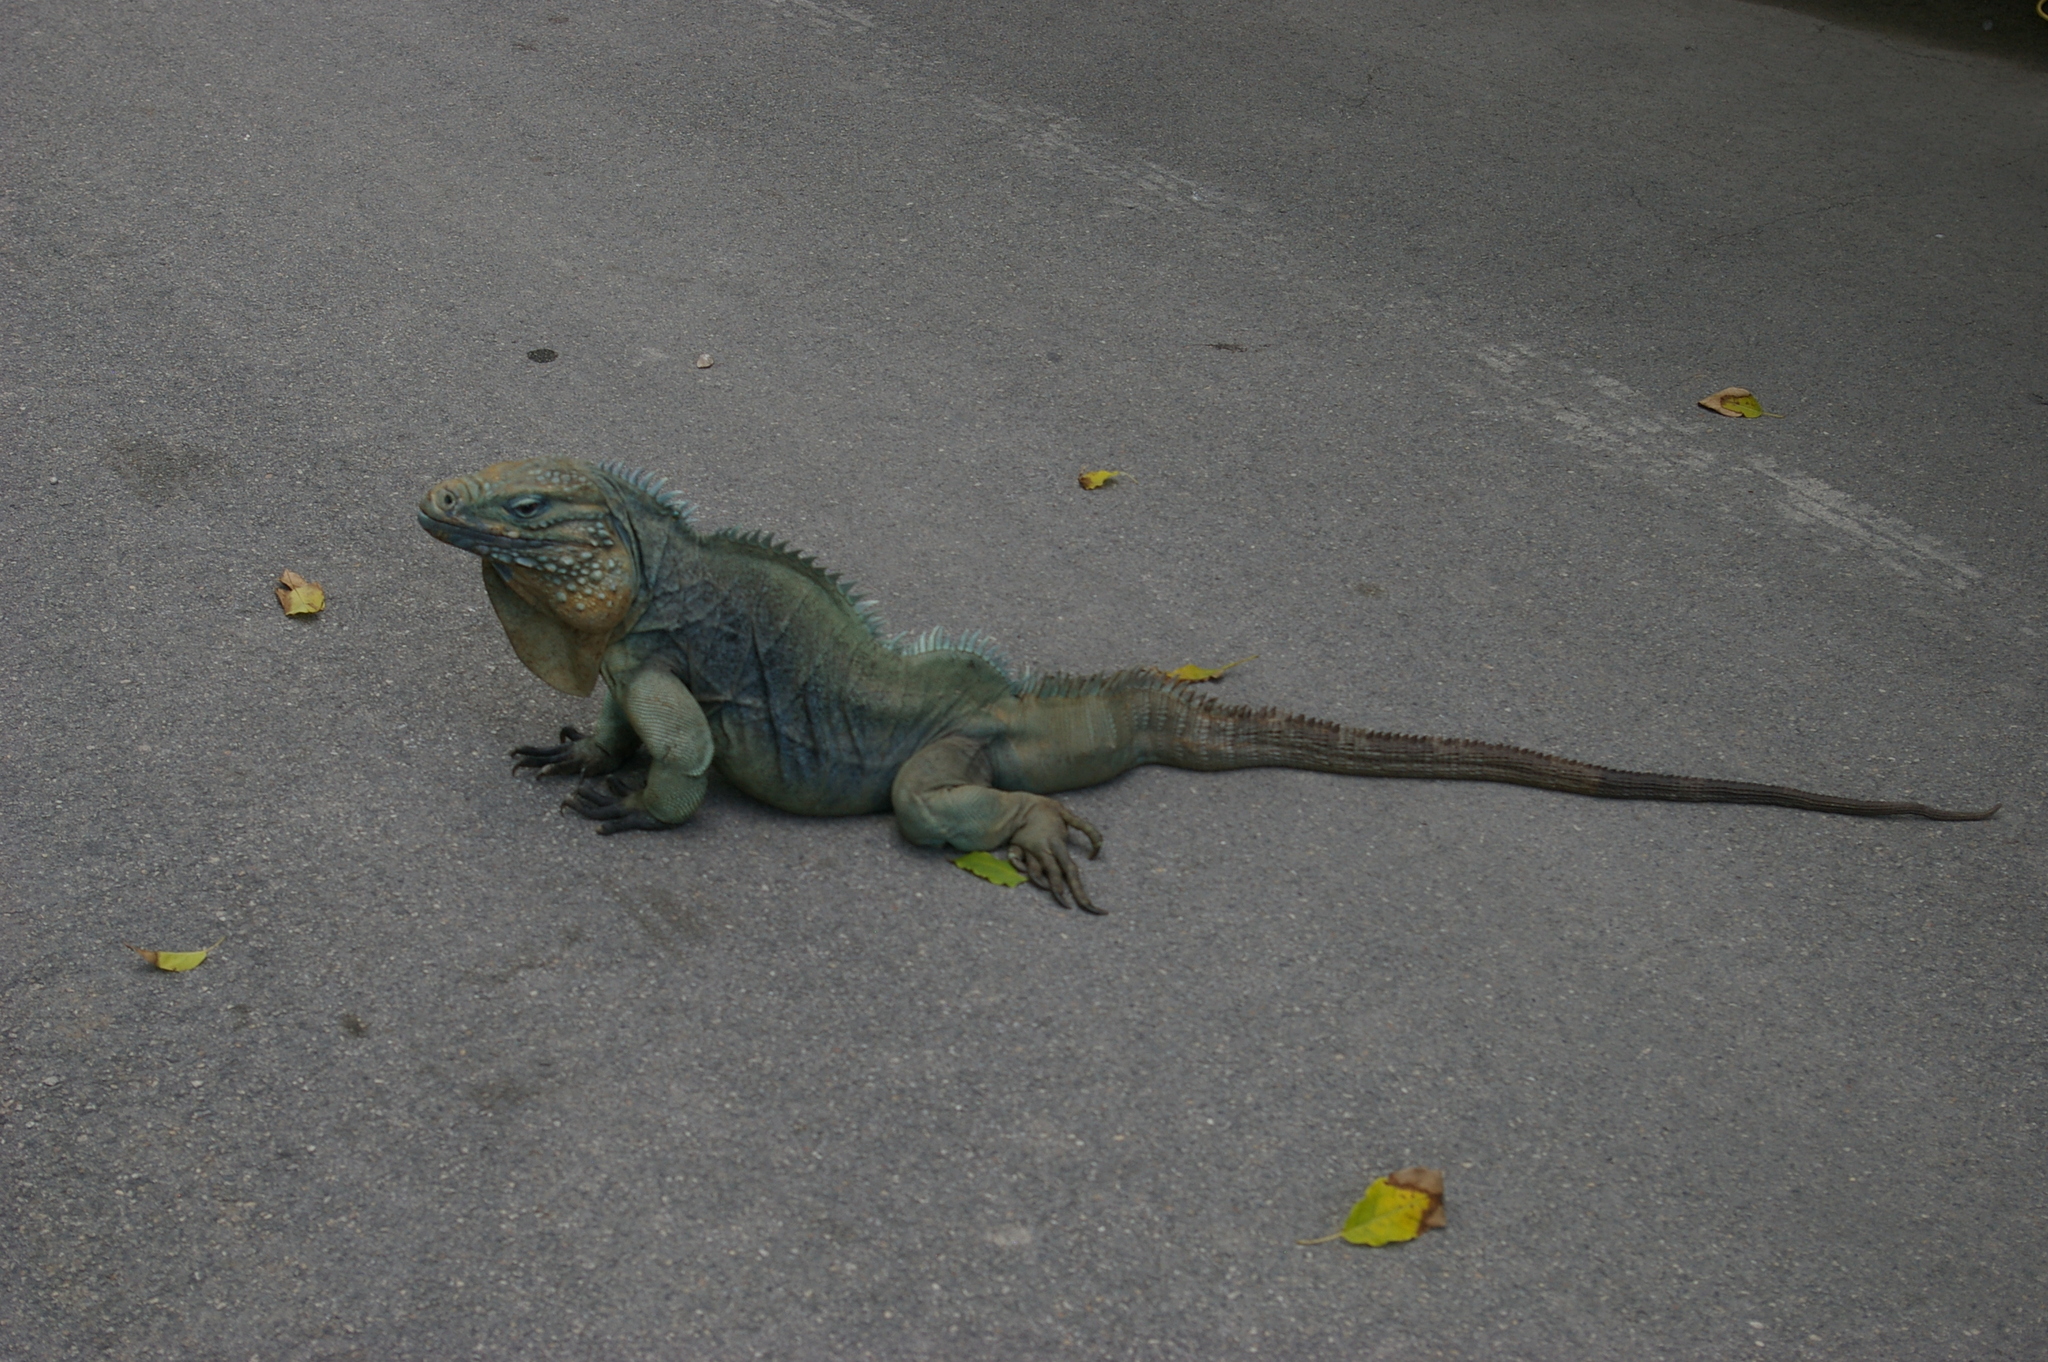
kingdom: Animalia
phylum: Chordata
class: Squamata
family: Iguanidae
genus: Cyclura
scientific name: Cyclura lewisi
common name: Grand cayman blue iguana
